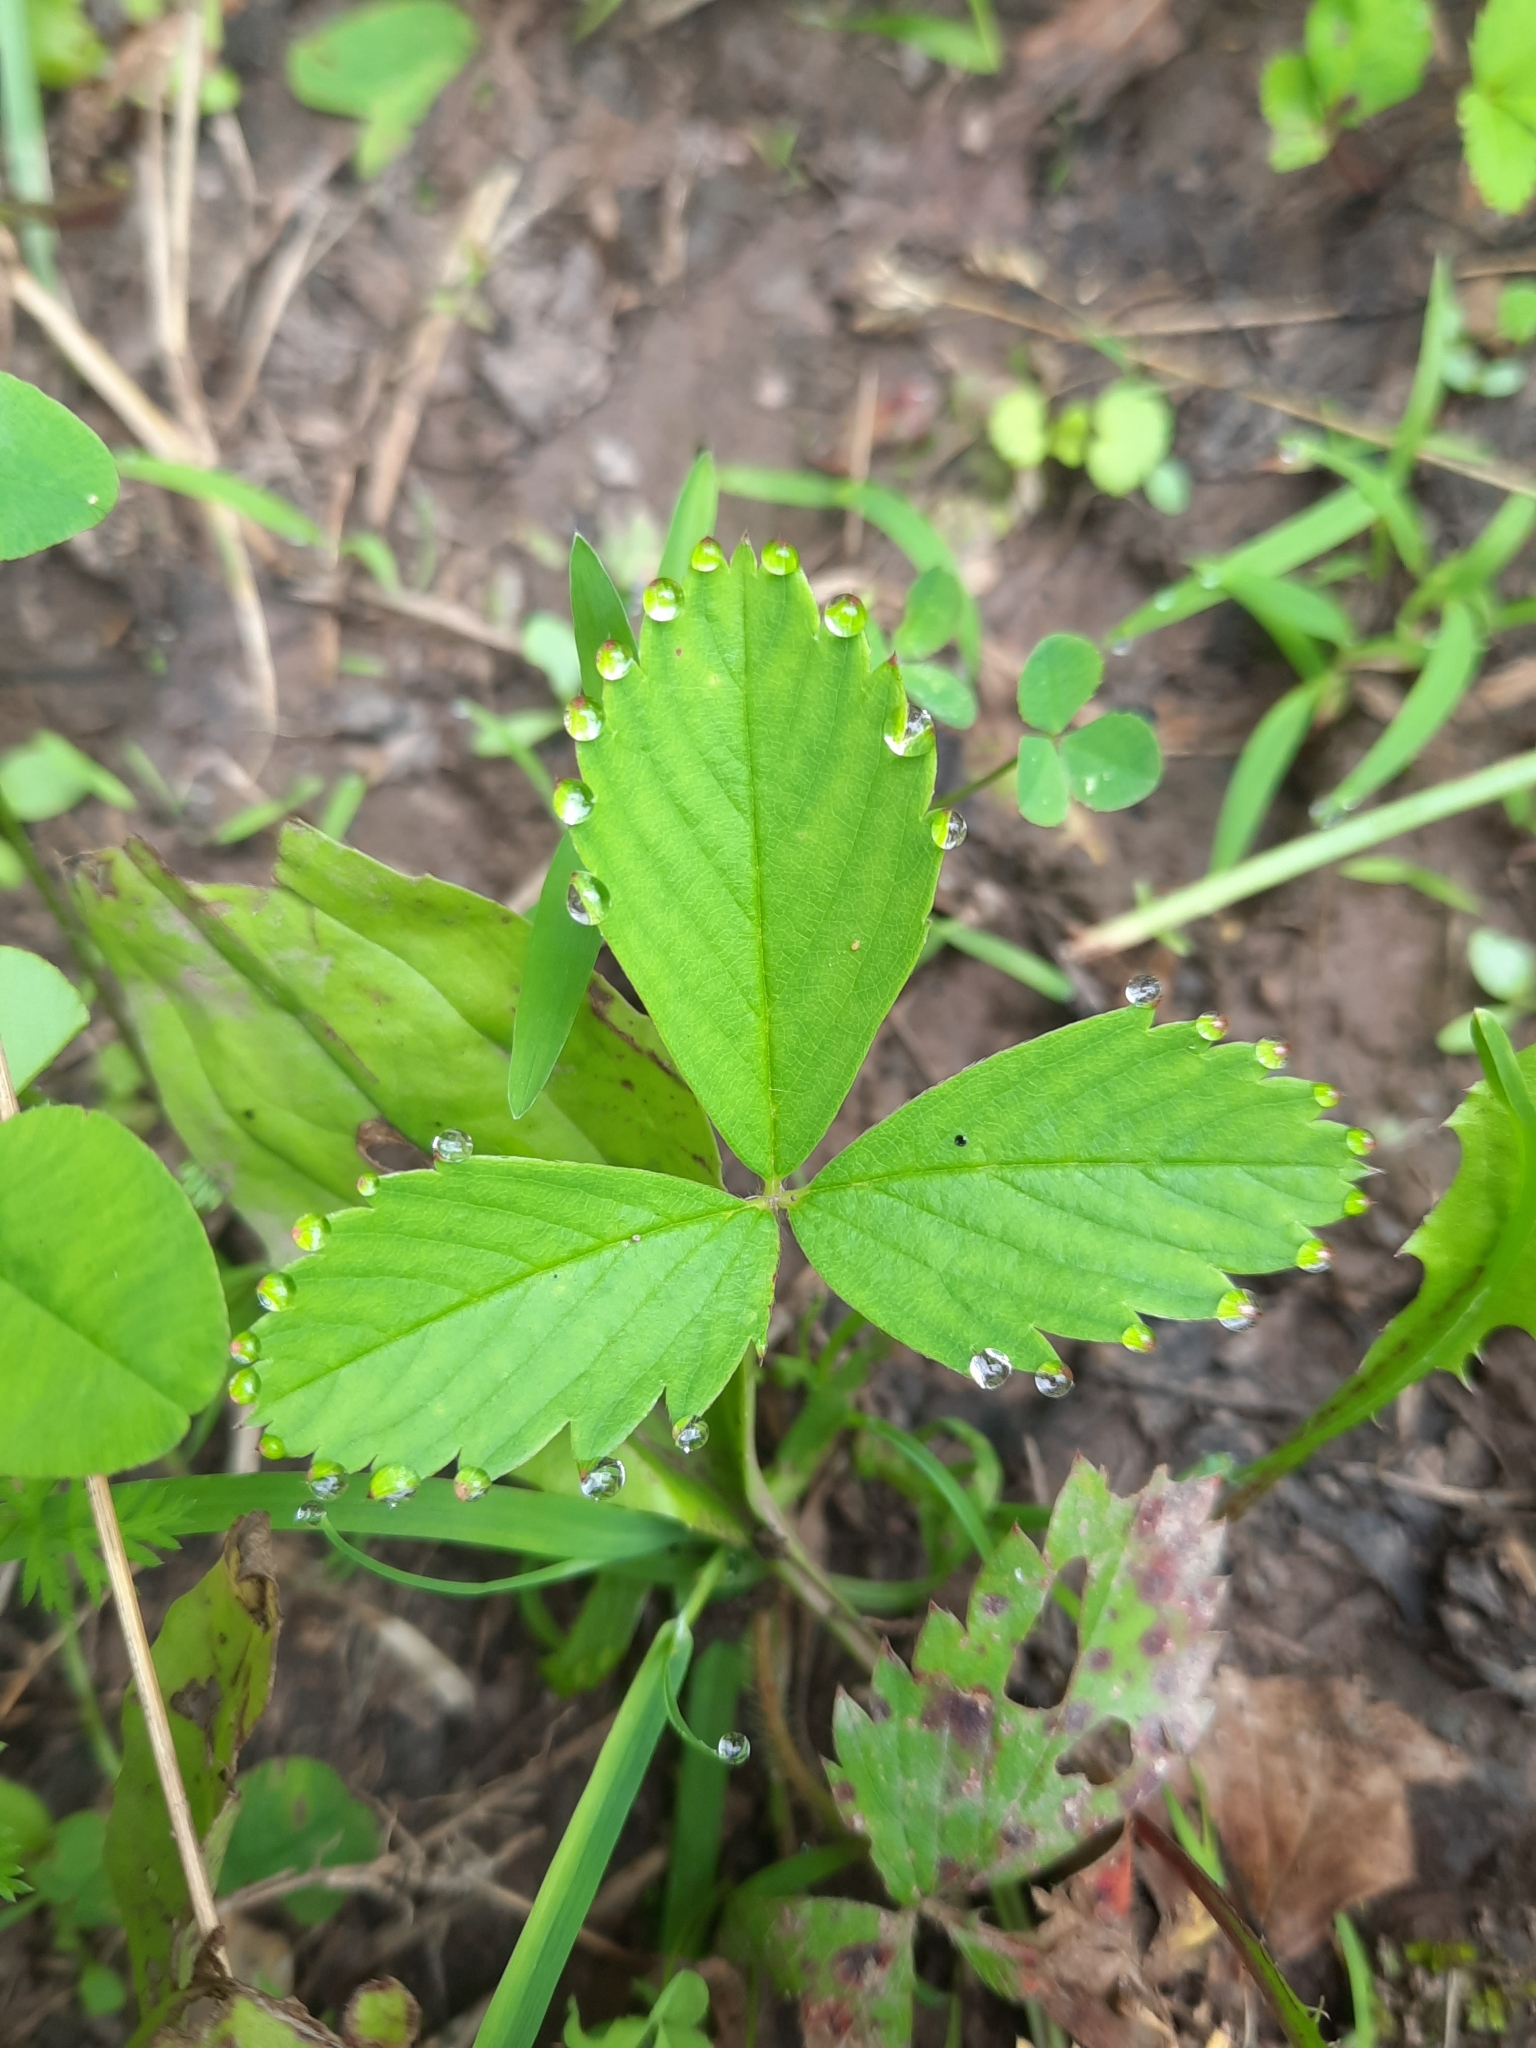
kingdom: Plantae
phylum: Tracheophyta
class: Magnoliopsida
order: Rosales
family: Rosaceae
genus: Fragaria
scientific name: Fragaria virginiana
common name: Thickleaved wild strawberry
